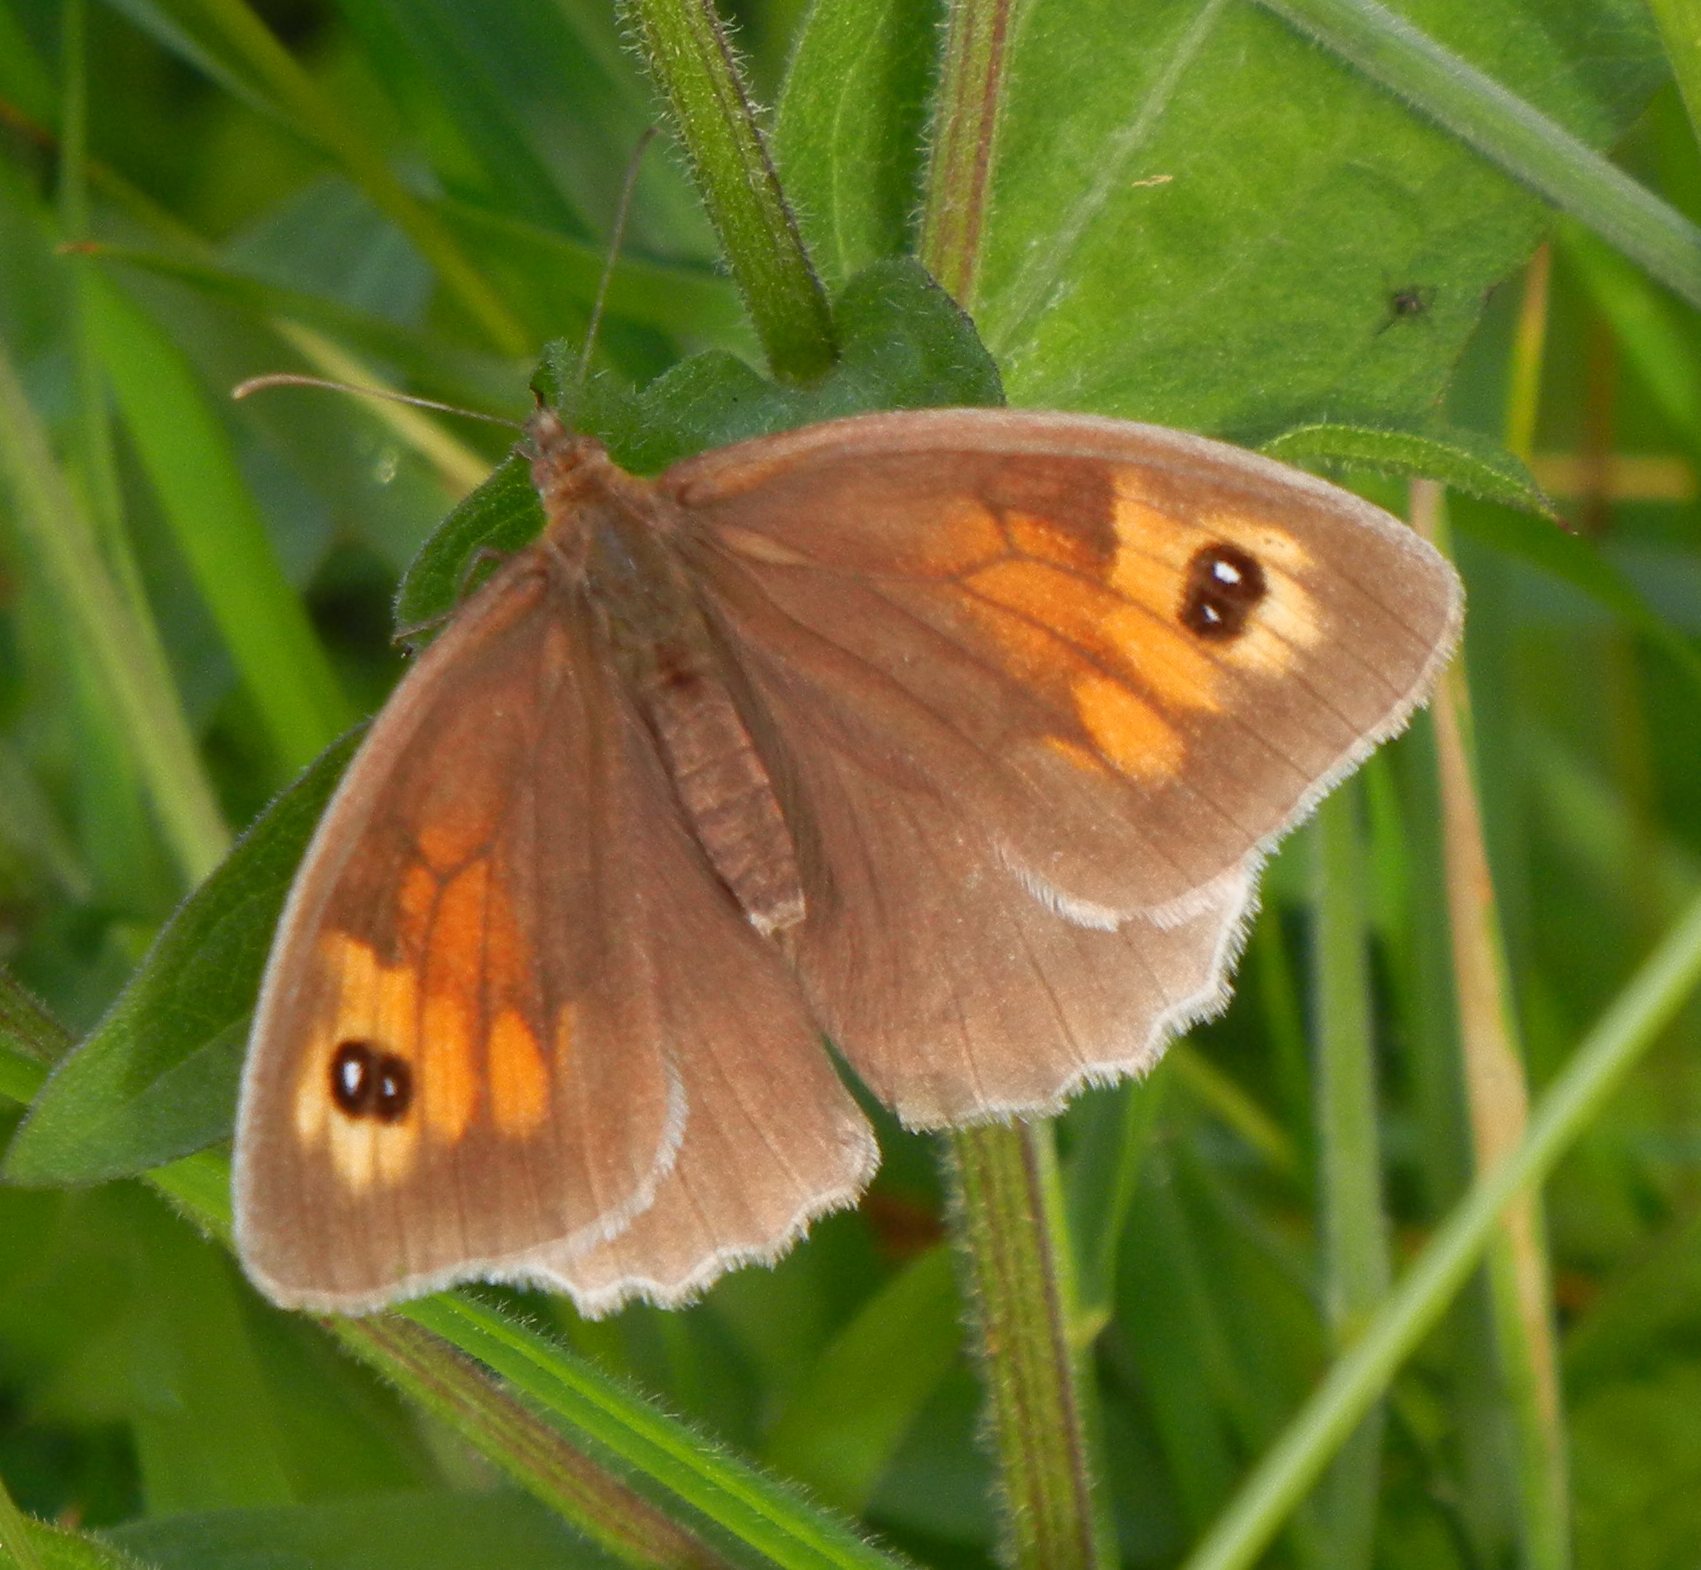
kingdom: Animalia
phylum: Arthropoda
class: Insecta
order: Lepidoptera
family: Nymphalidae
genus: Maniola
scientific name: Maniola jurtina
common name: Meadow brown
